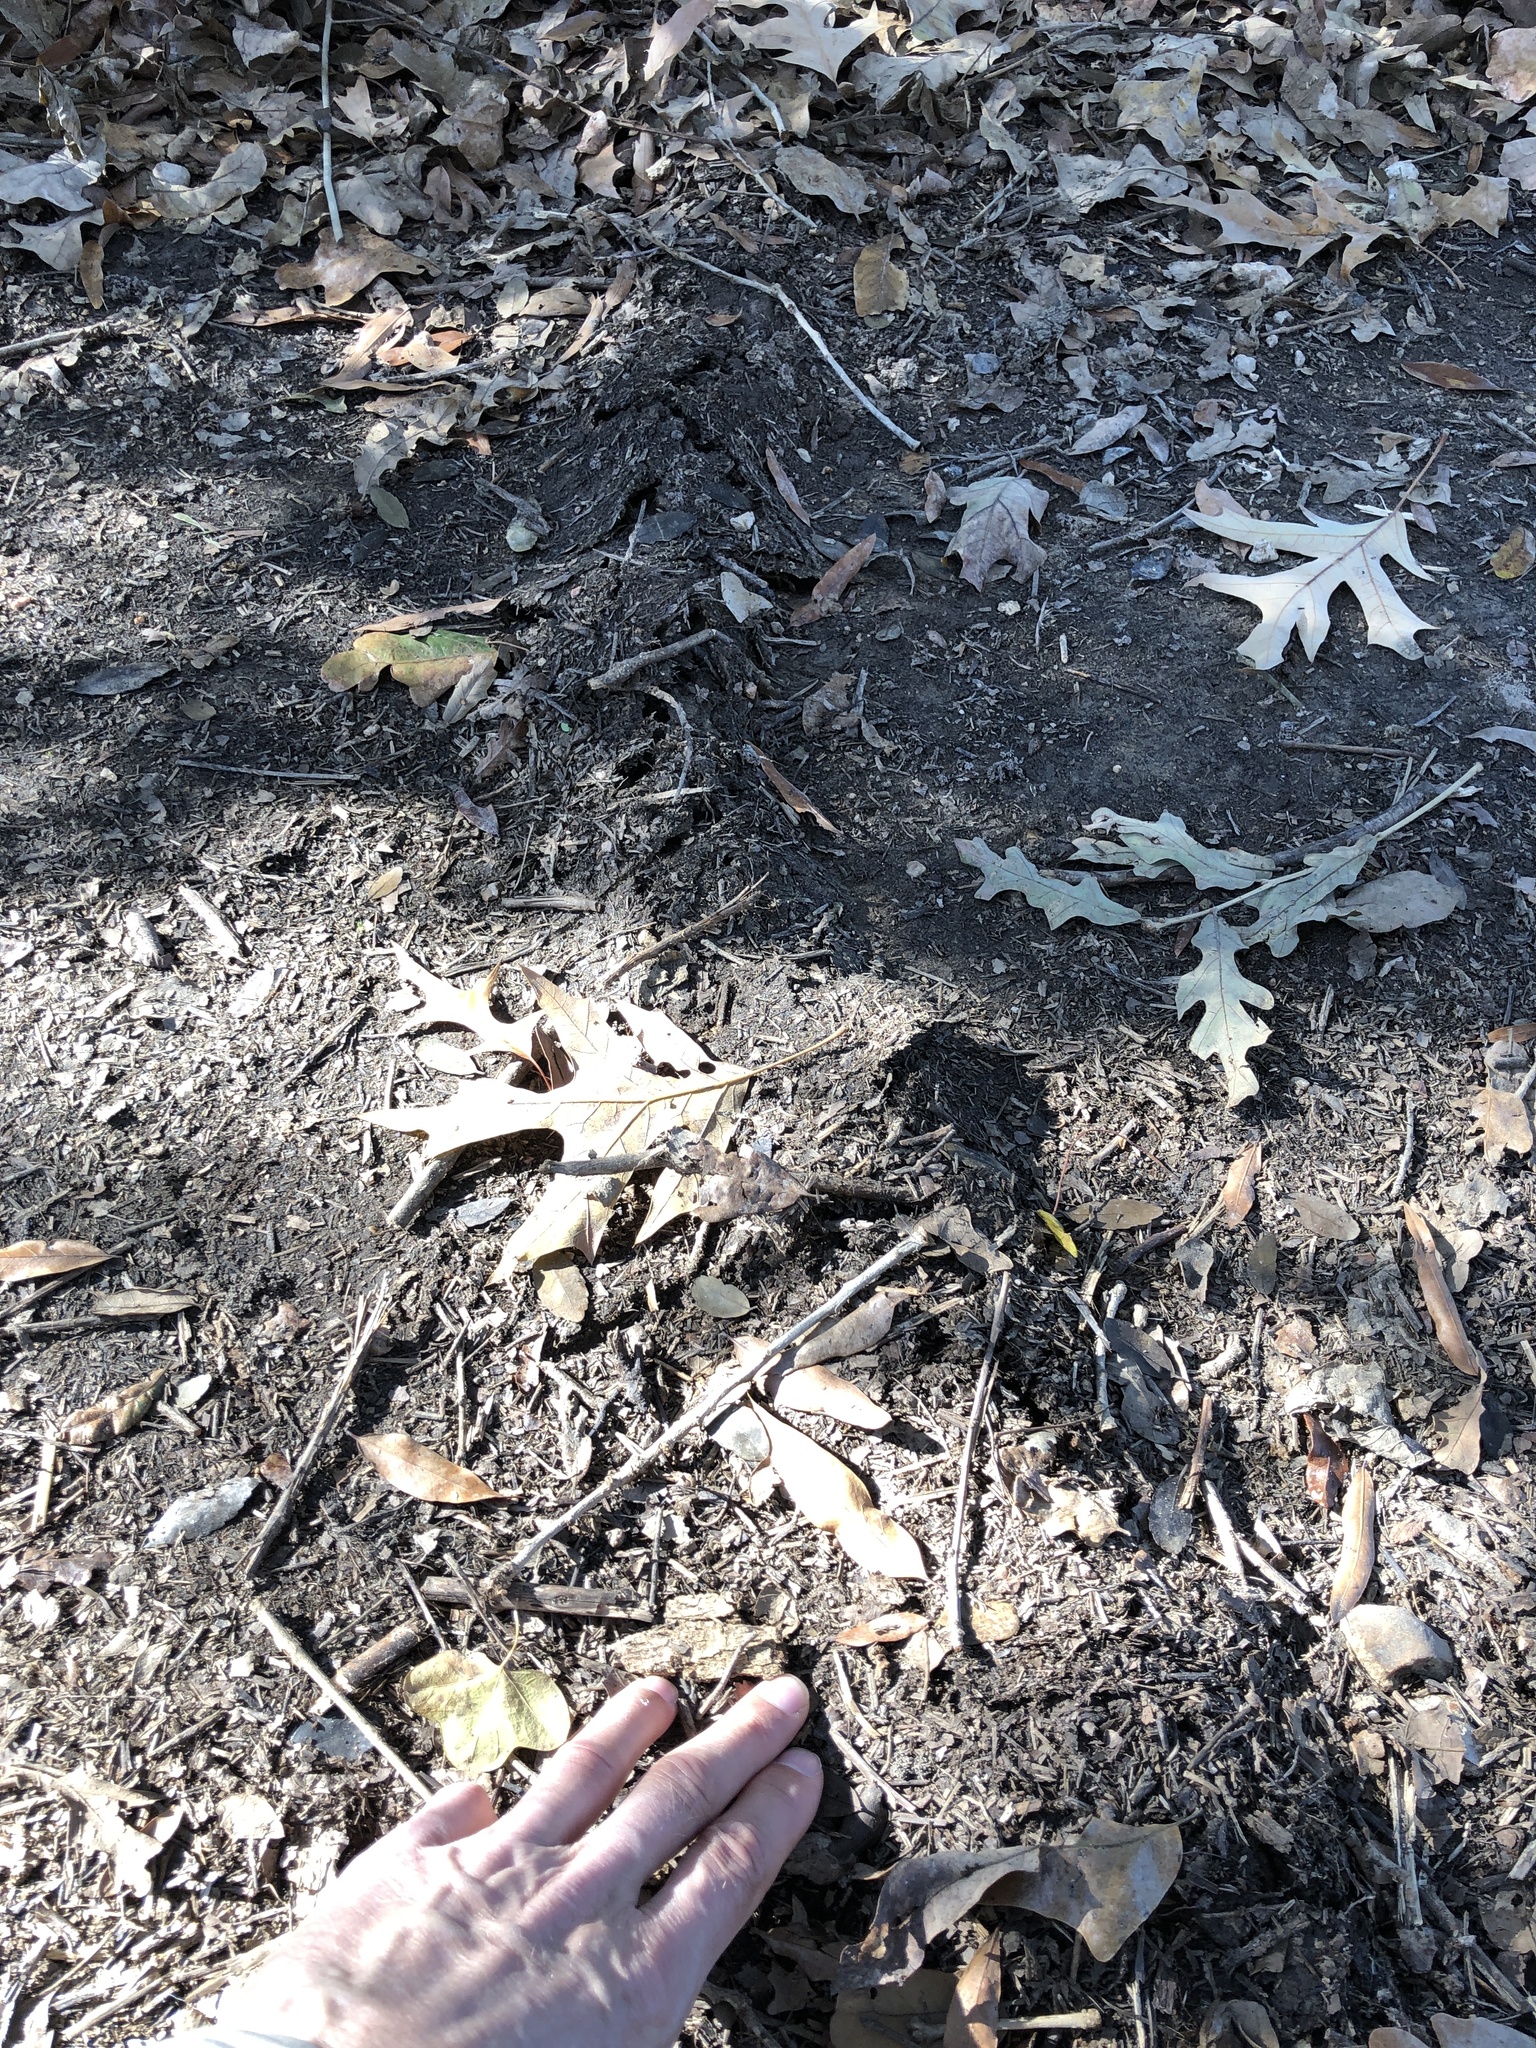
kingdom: Animalia
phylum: Chordata
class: Mammalia
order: Soricomorpha
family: Talpidae
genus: Scalopus
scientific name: Scalopus aquaticus
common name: Eastern mole
